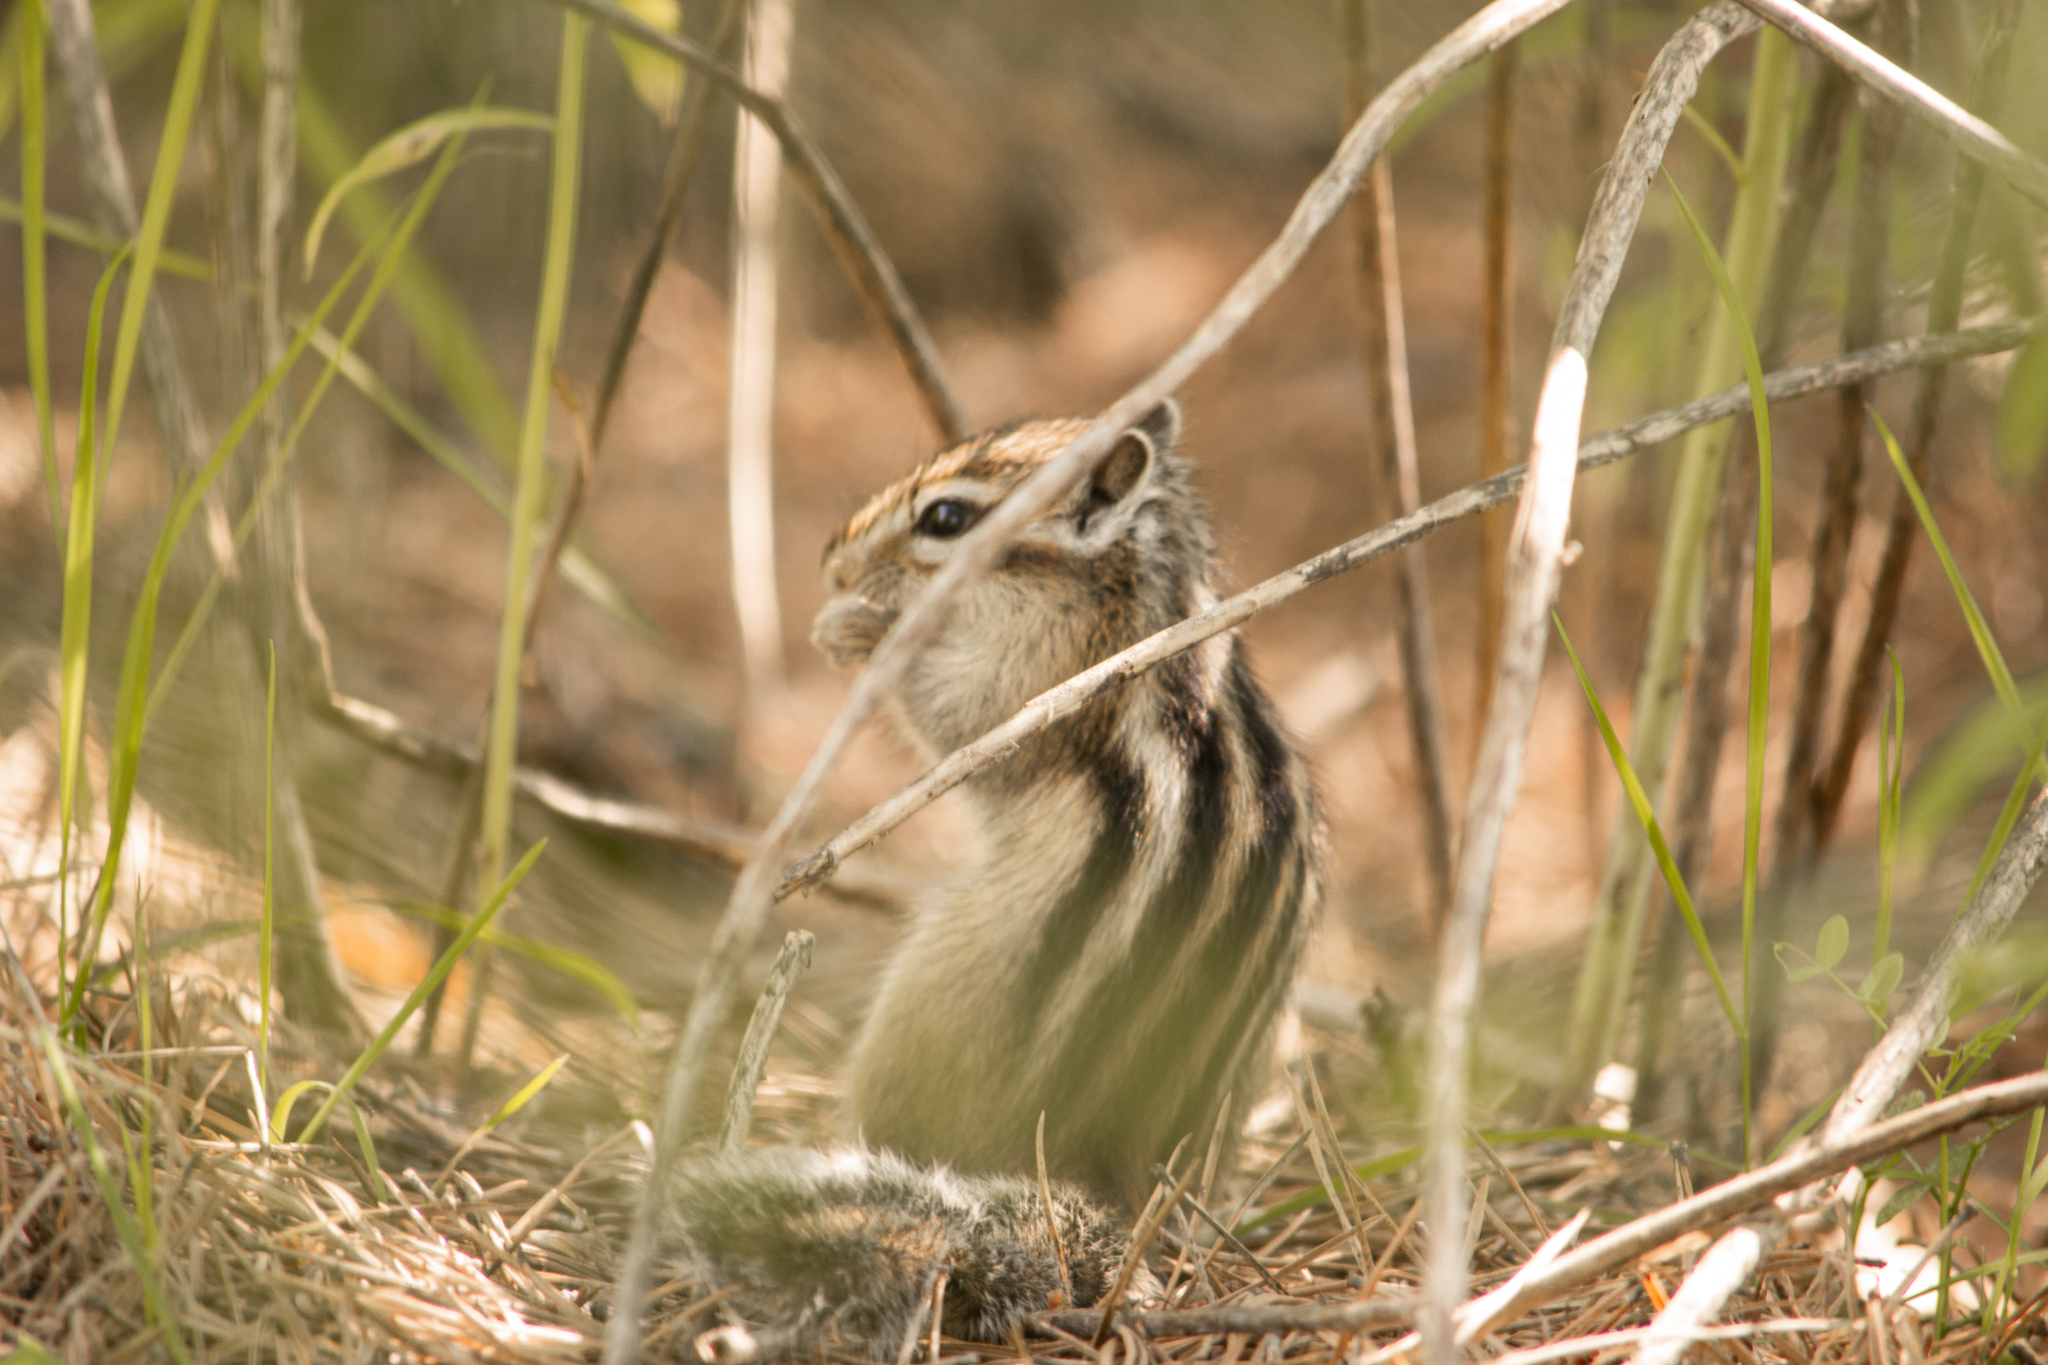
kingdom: Animalia
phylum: Chordata
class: Mammalia
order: Rodentia
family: Sciuridae
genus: Tamias
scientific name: Tamias sibiricus
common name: Siberian chipmunk
